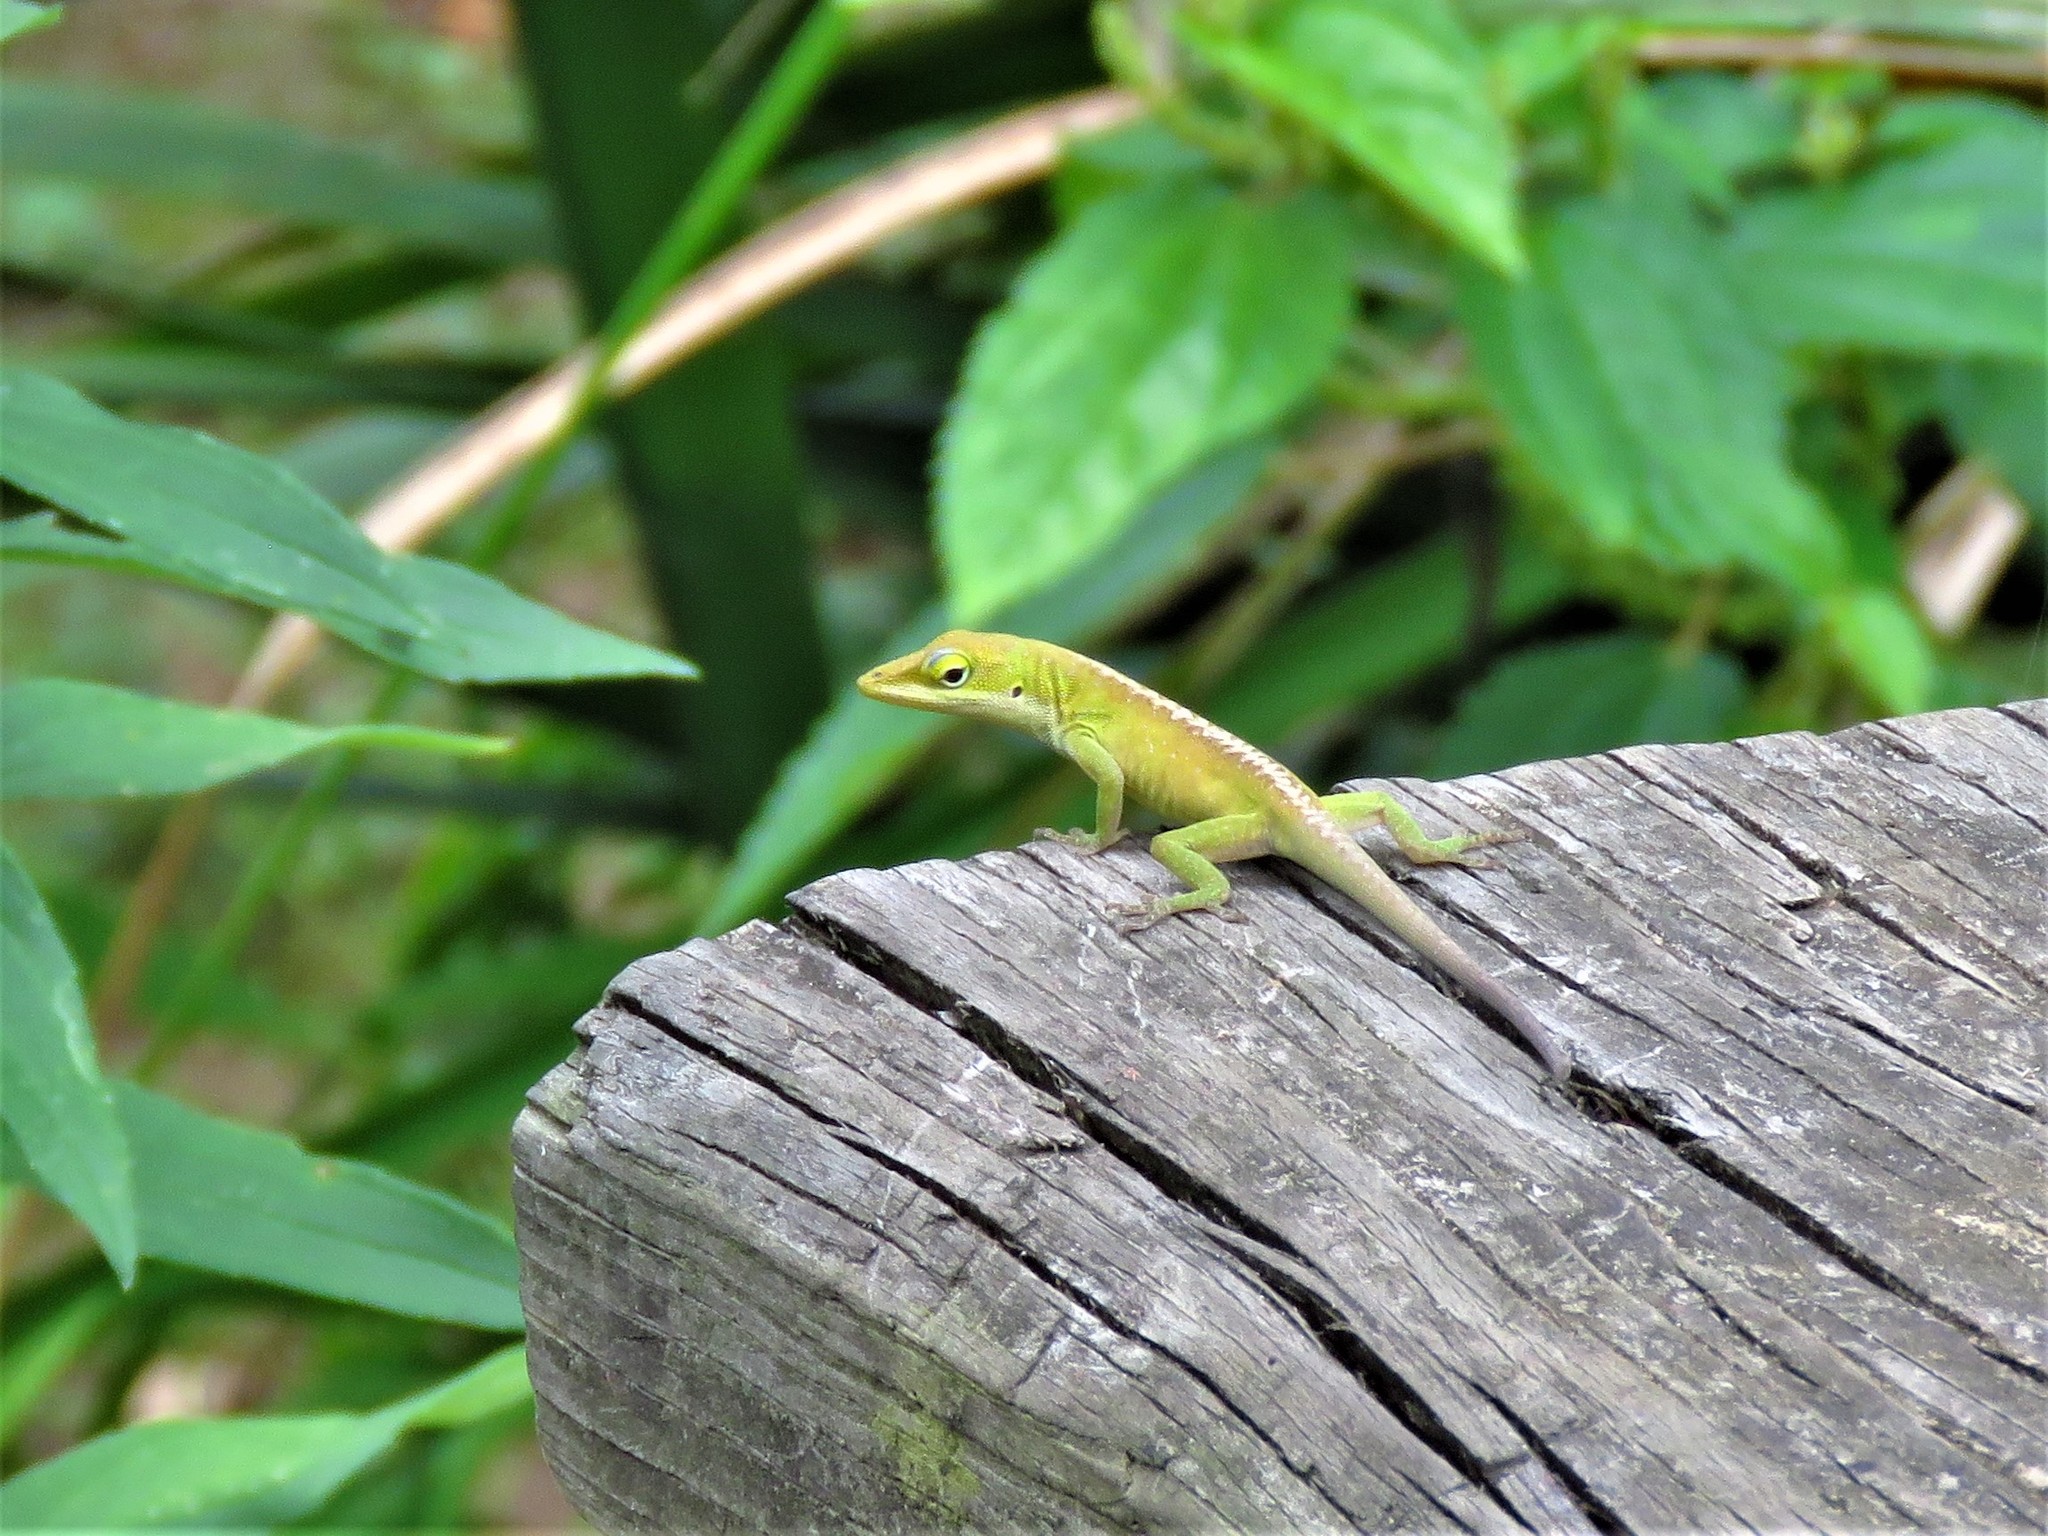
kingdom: Animalia
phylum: Chordata
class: Squamata
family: Dactyloidae
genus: Anolis
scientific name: Anolis carolinensis
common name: Green anole
